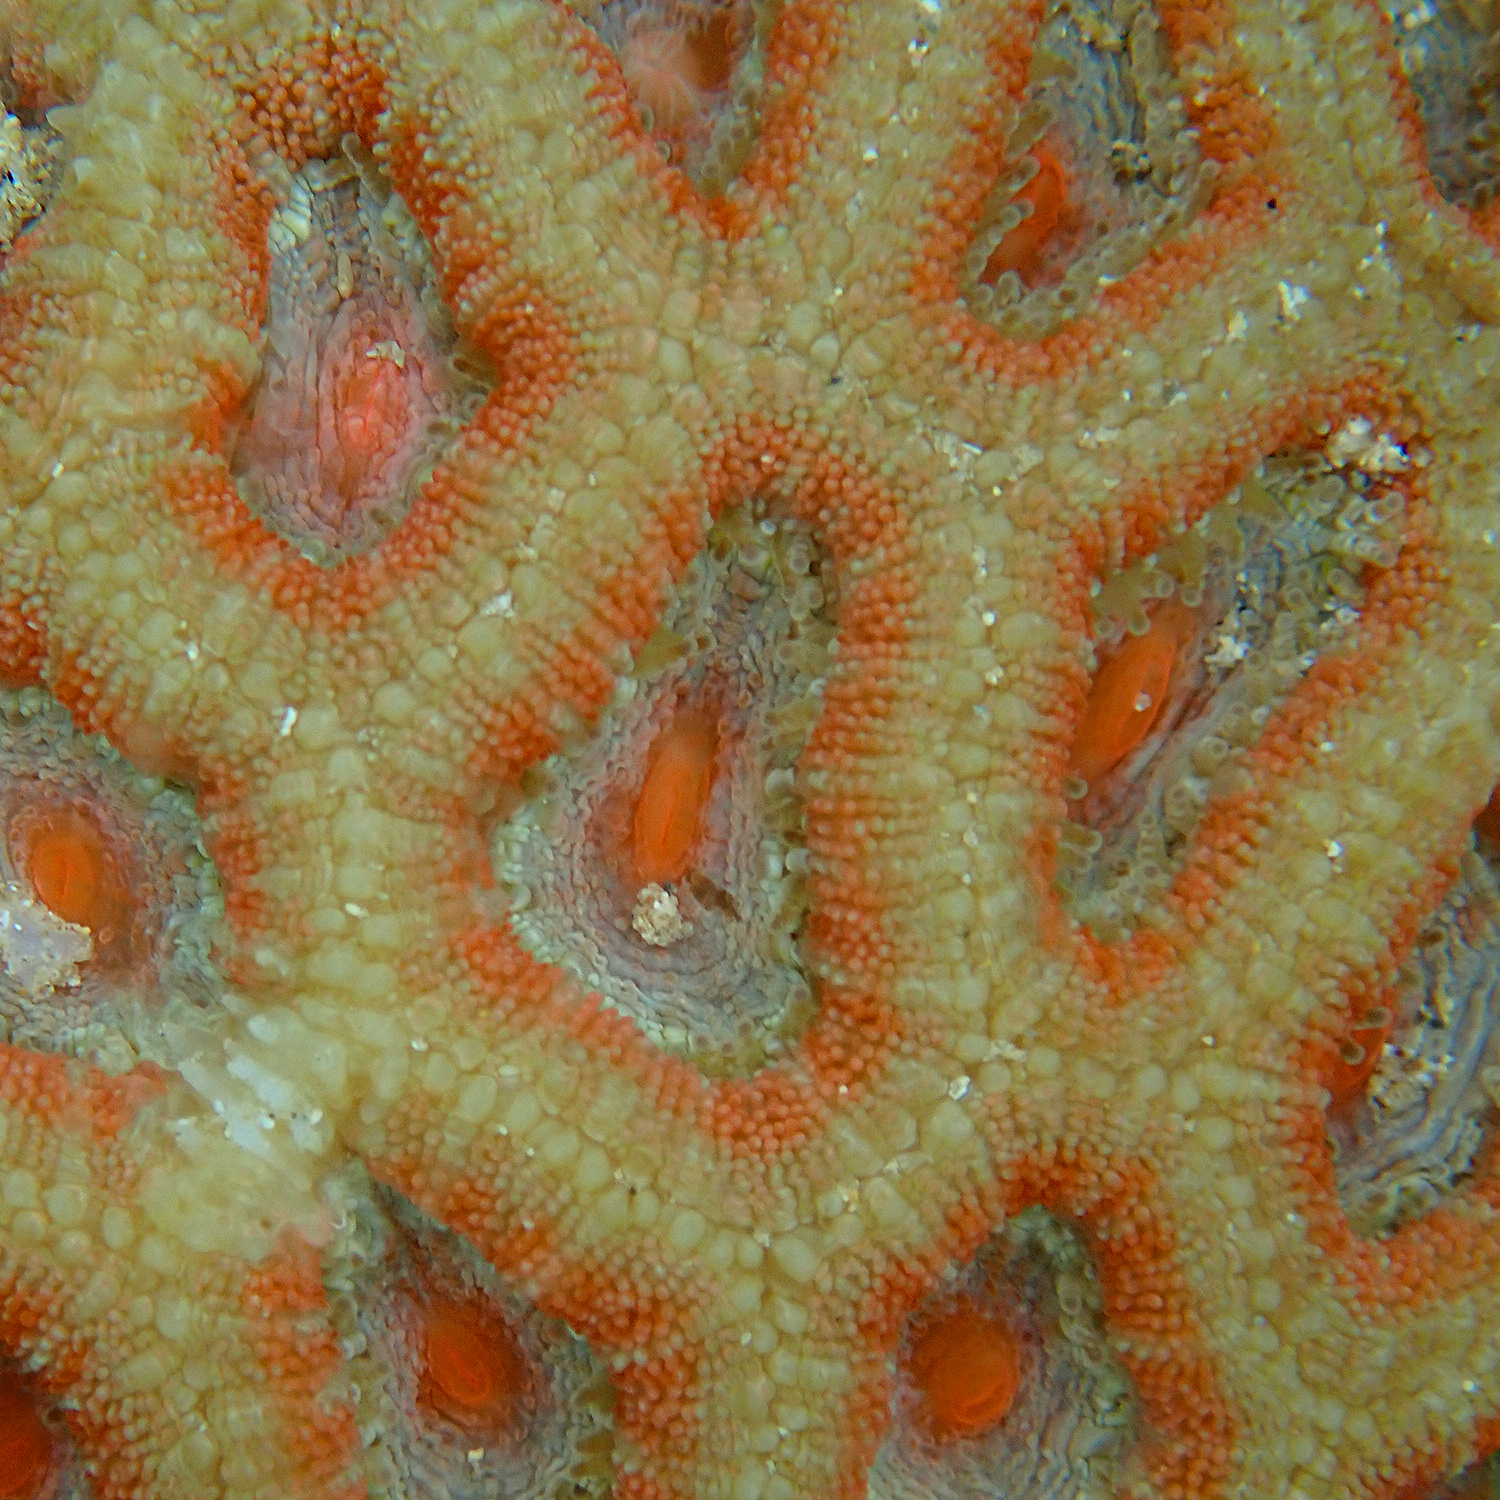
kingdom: Animalia
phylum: Cnidaria
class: Anthozoa
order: Scleractinia
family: Lobophylliidae
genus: Micromussa
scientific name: Micromussa lordhowensis
